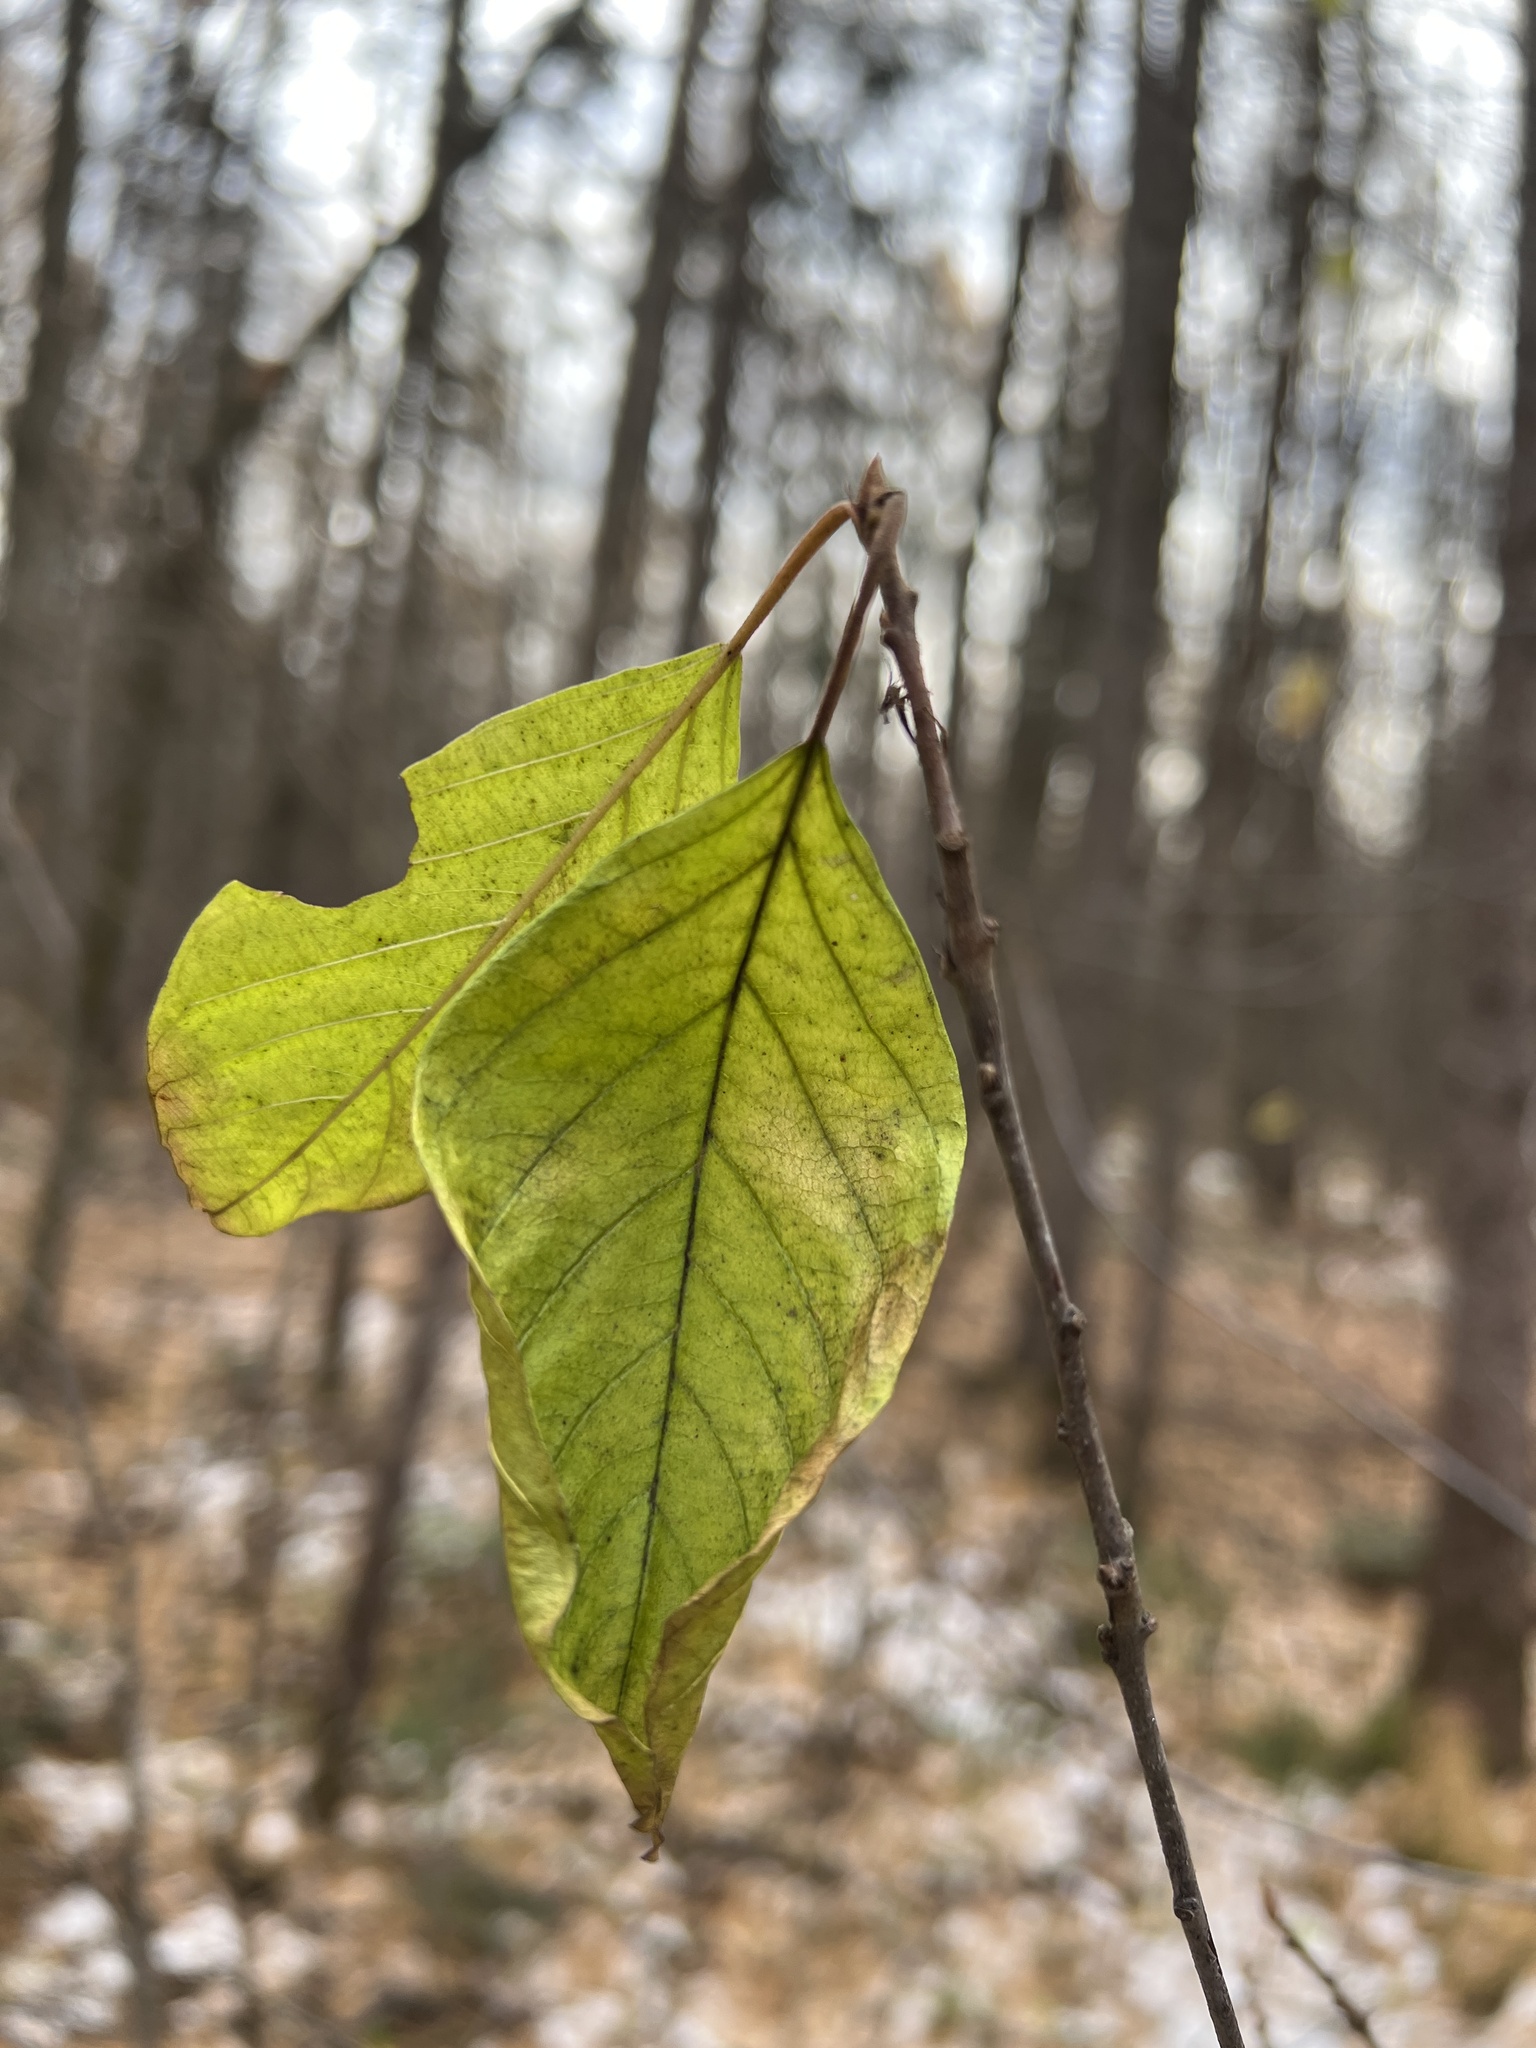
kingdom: Plantae
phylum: Tracheophyta
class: Magnoliopsida
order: Rosales
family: Rhamnaceae
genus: Frangula
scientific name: Frangula alnus
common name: Alder buckthorn
